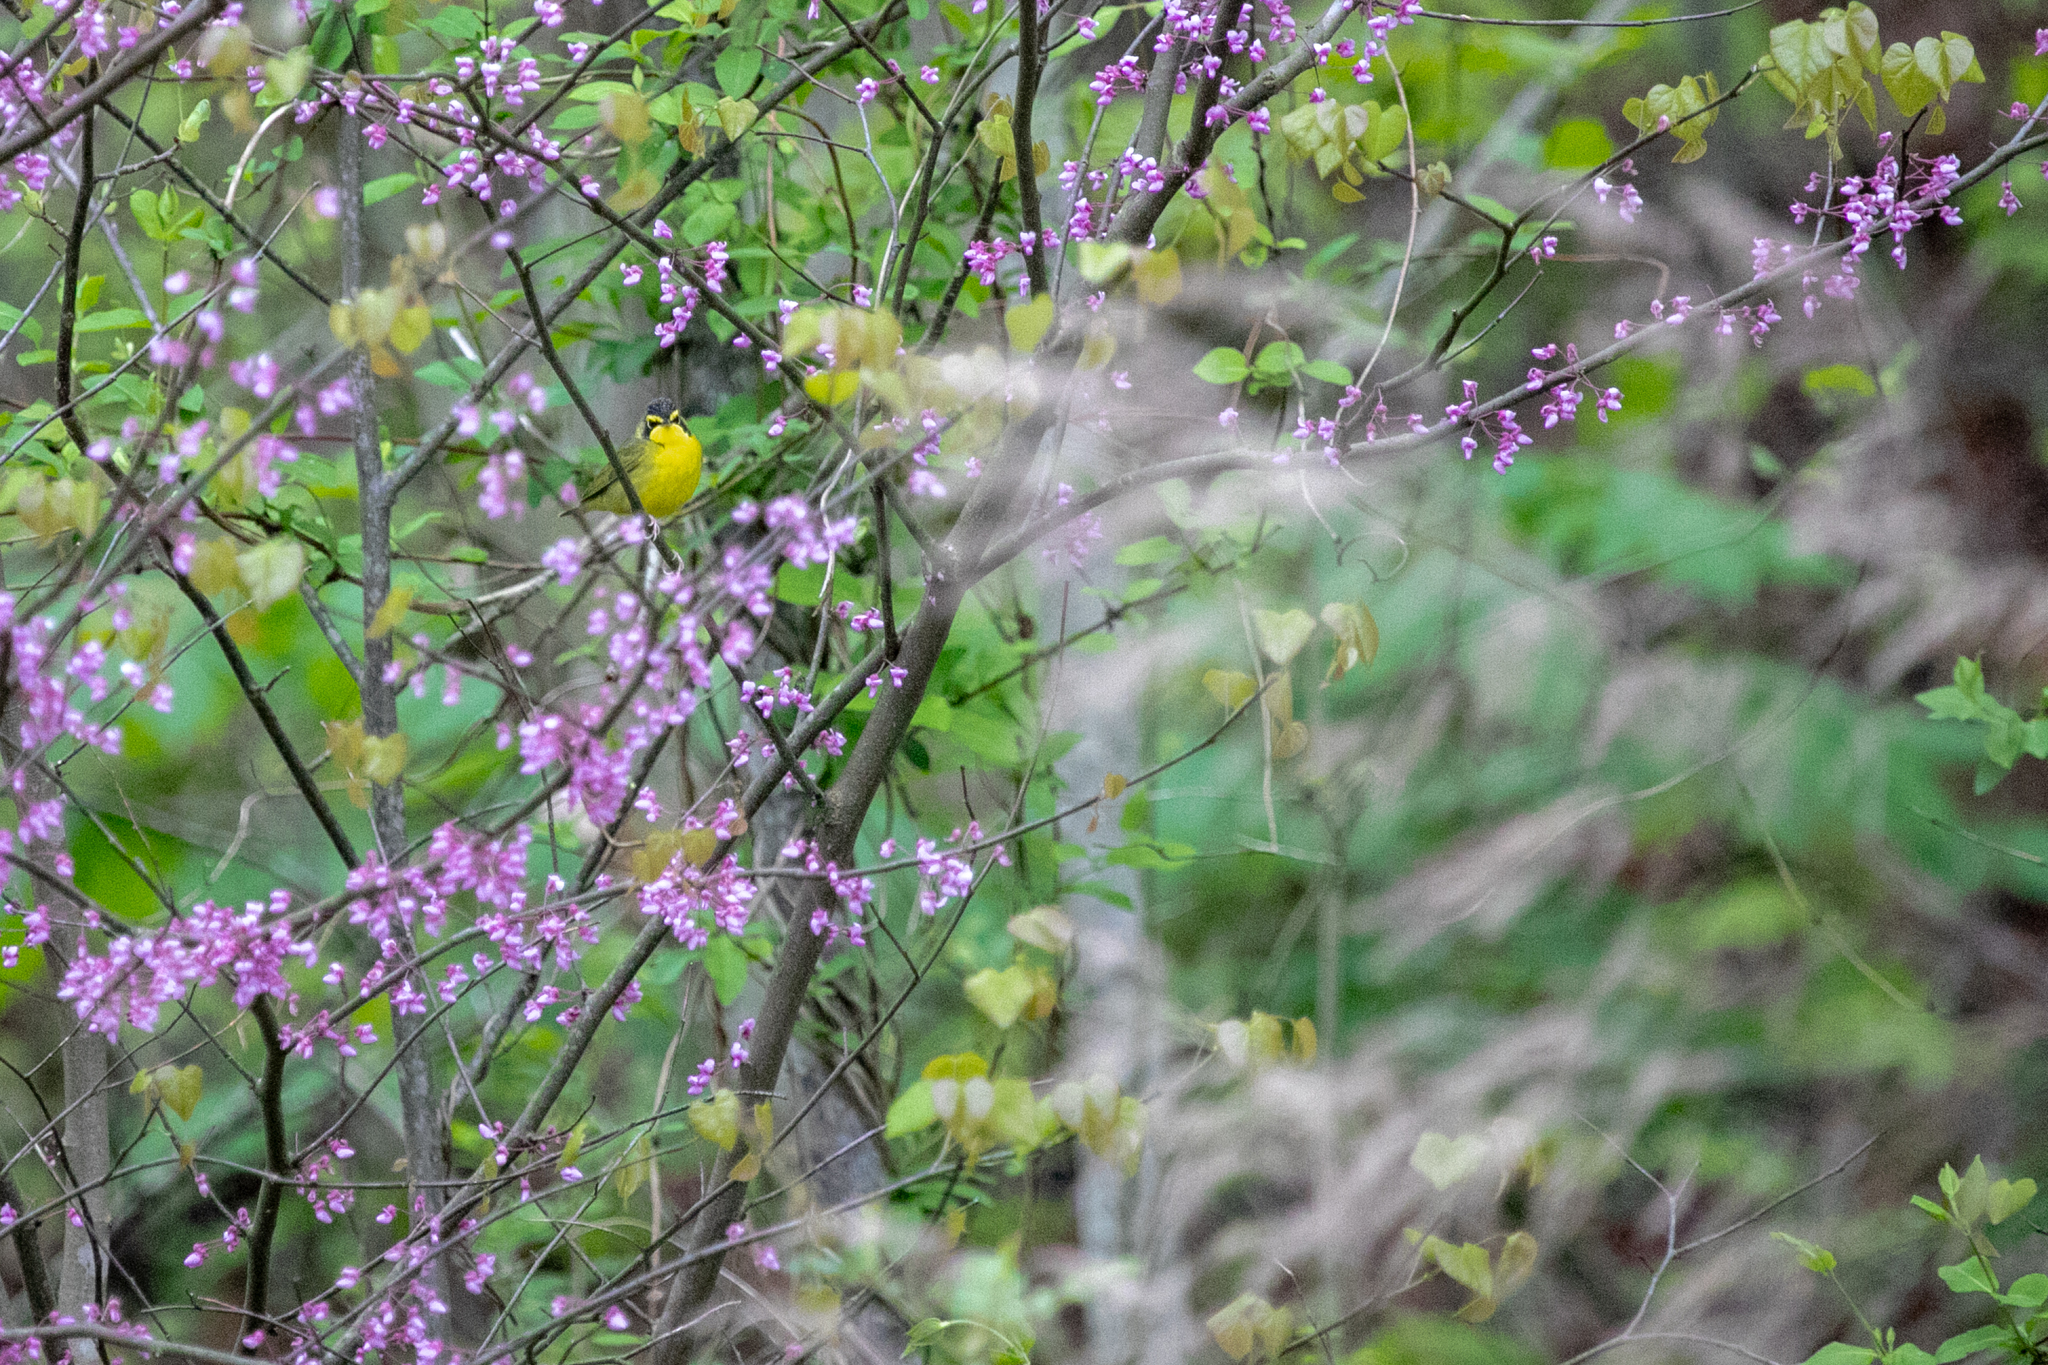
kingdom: Animalia
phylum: Chordata
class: Aves
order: Passeriformes
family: Parulidae
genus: Geothlypis
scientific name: Geothlypis formosa
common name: Kentucky warbler
